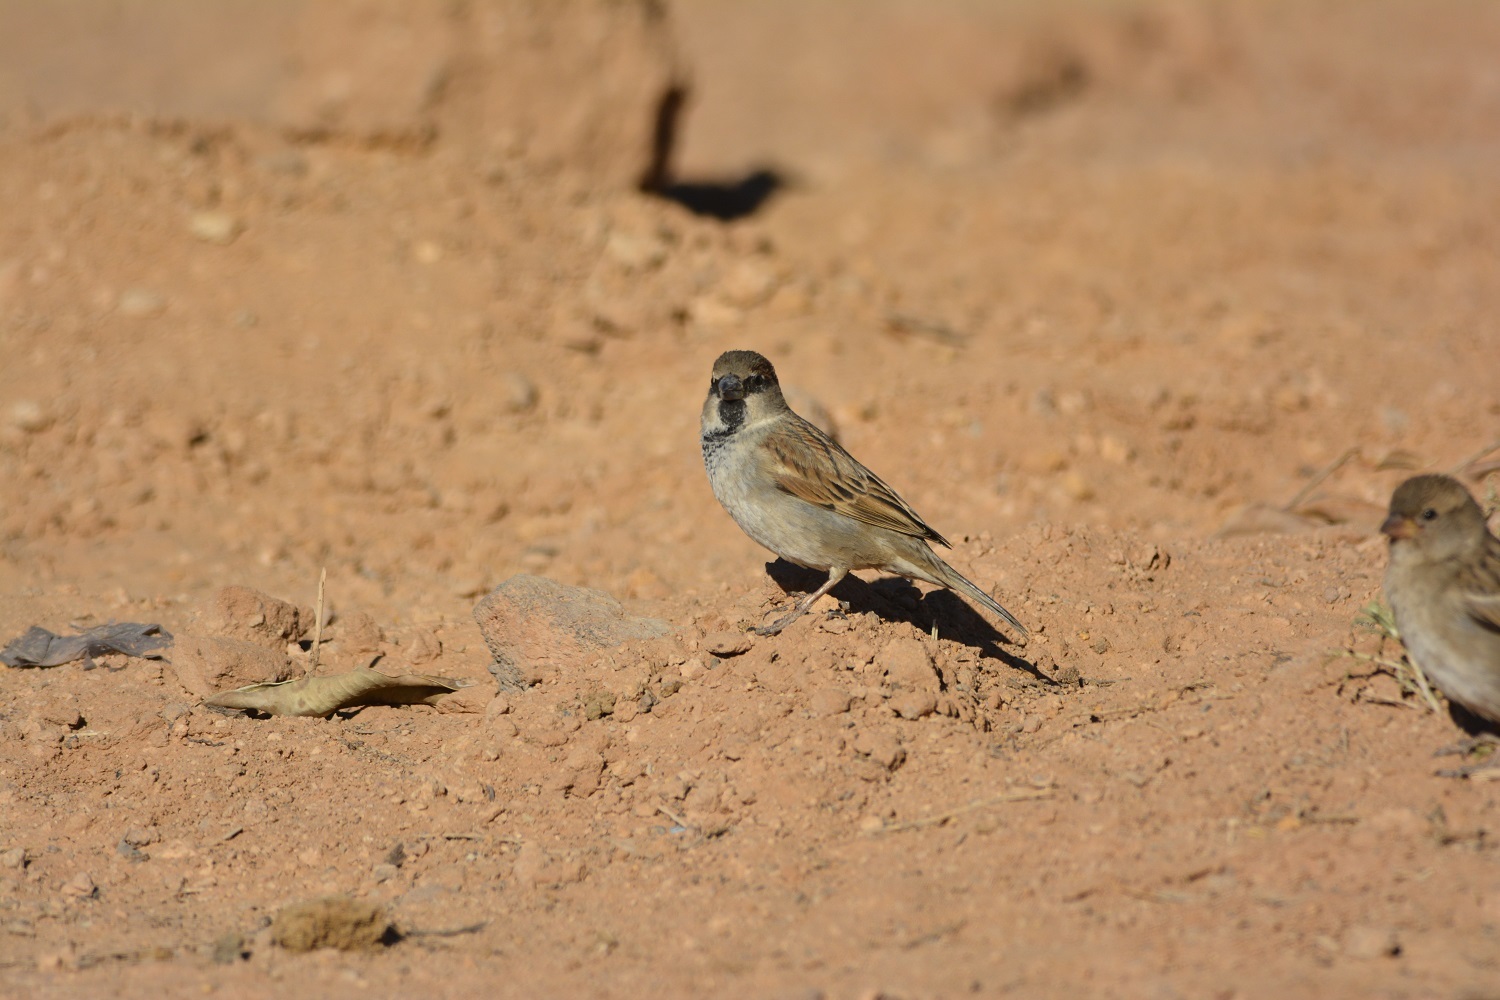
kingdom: Animalia
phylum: Chordata
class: Aves
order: Passeriformes
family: Passeridae
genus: Passer
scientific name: Passer domesticus
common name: House sparrow
